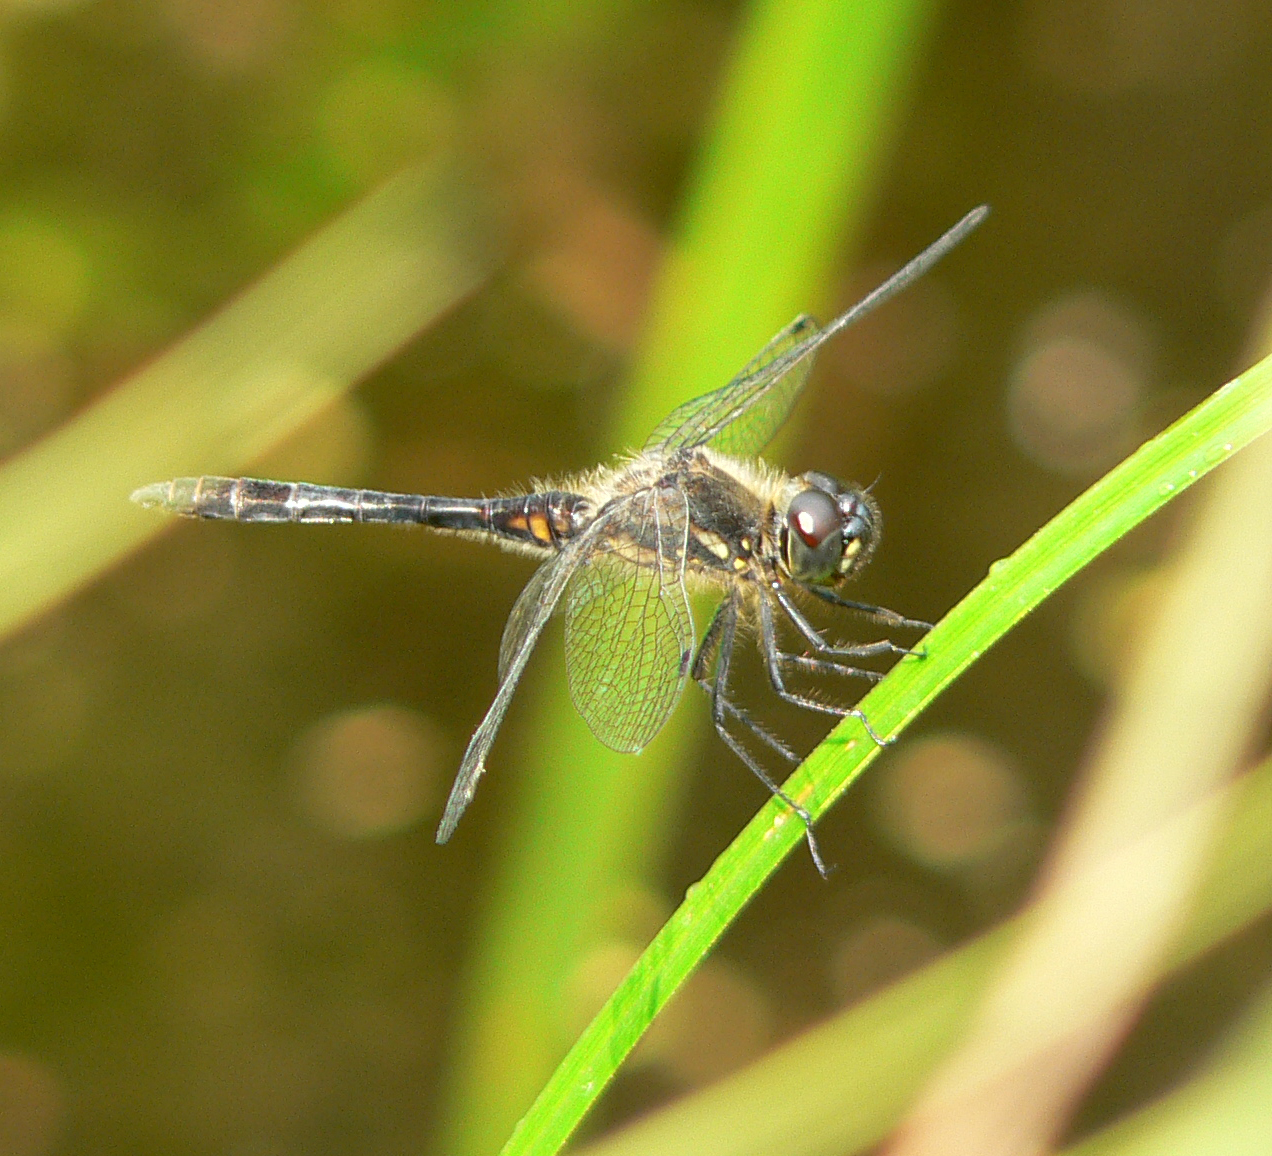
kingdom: Animalia
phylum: Arthropoda
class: Insecta
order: Odonata
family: Libellulidae
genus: Sympetrum
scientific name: Sympetrum danae
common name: Black darter
